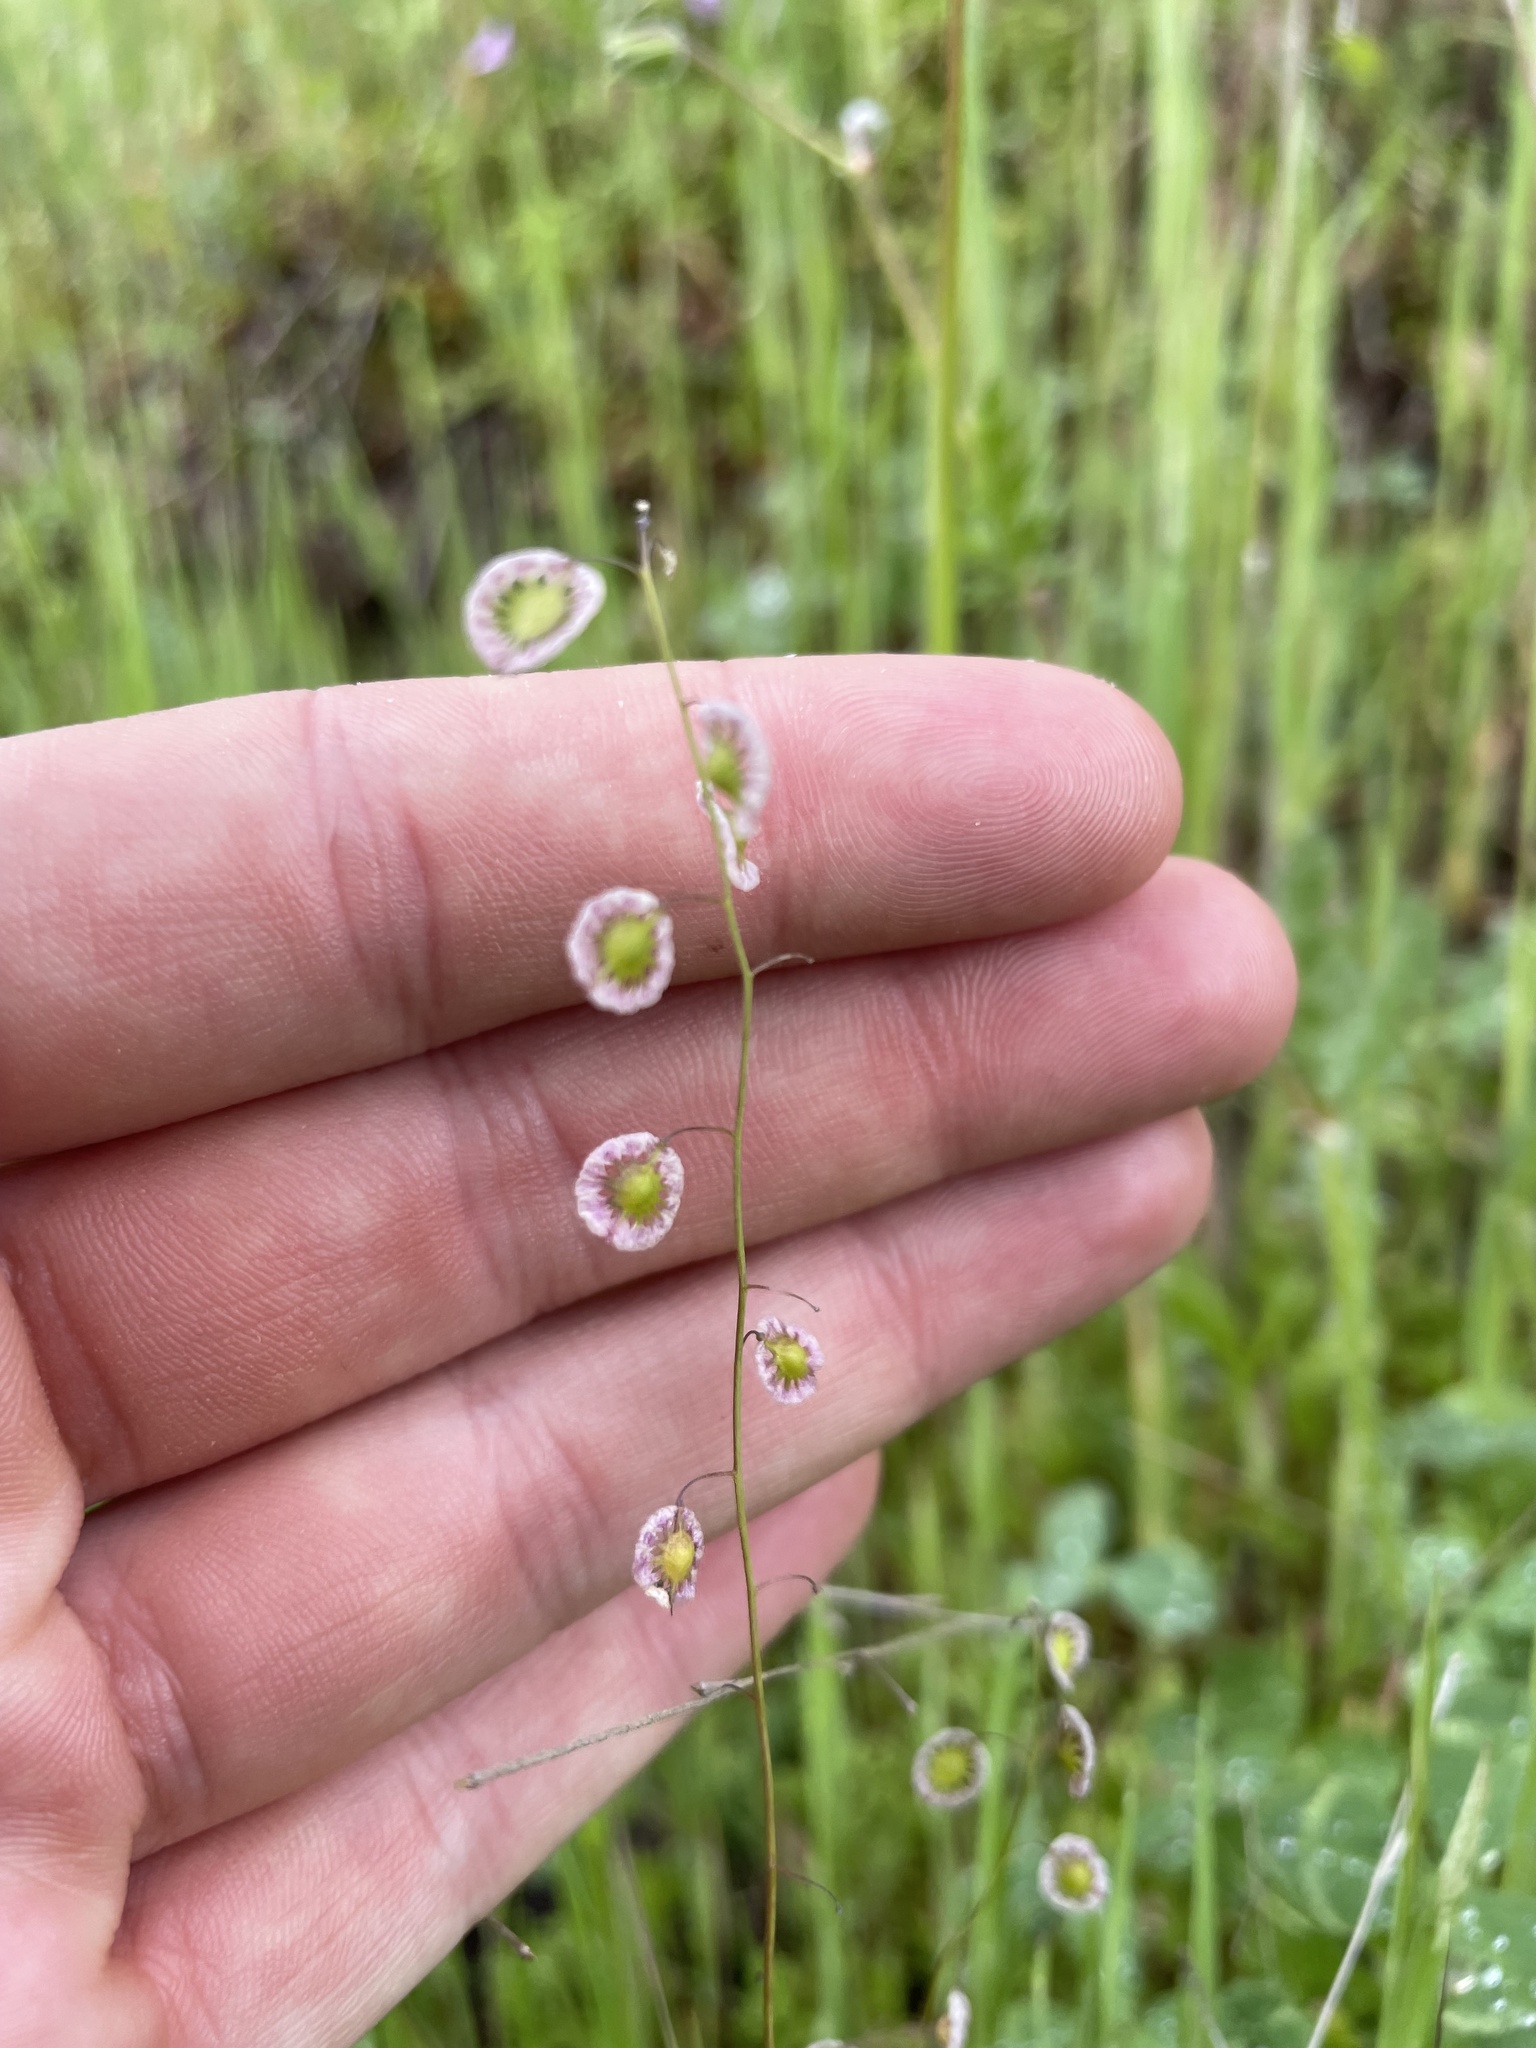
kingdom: Plantae
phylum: Tracheophyta
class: Magnoliopsida
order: Brassicales
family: Brassicaceae
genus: Thysanocarpus
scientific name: Thysanocarpus curvipes
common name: Sand fringepod
